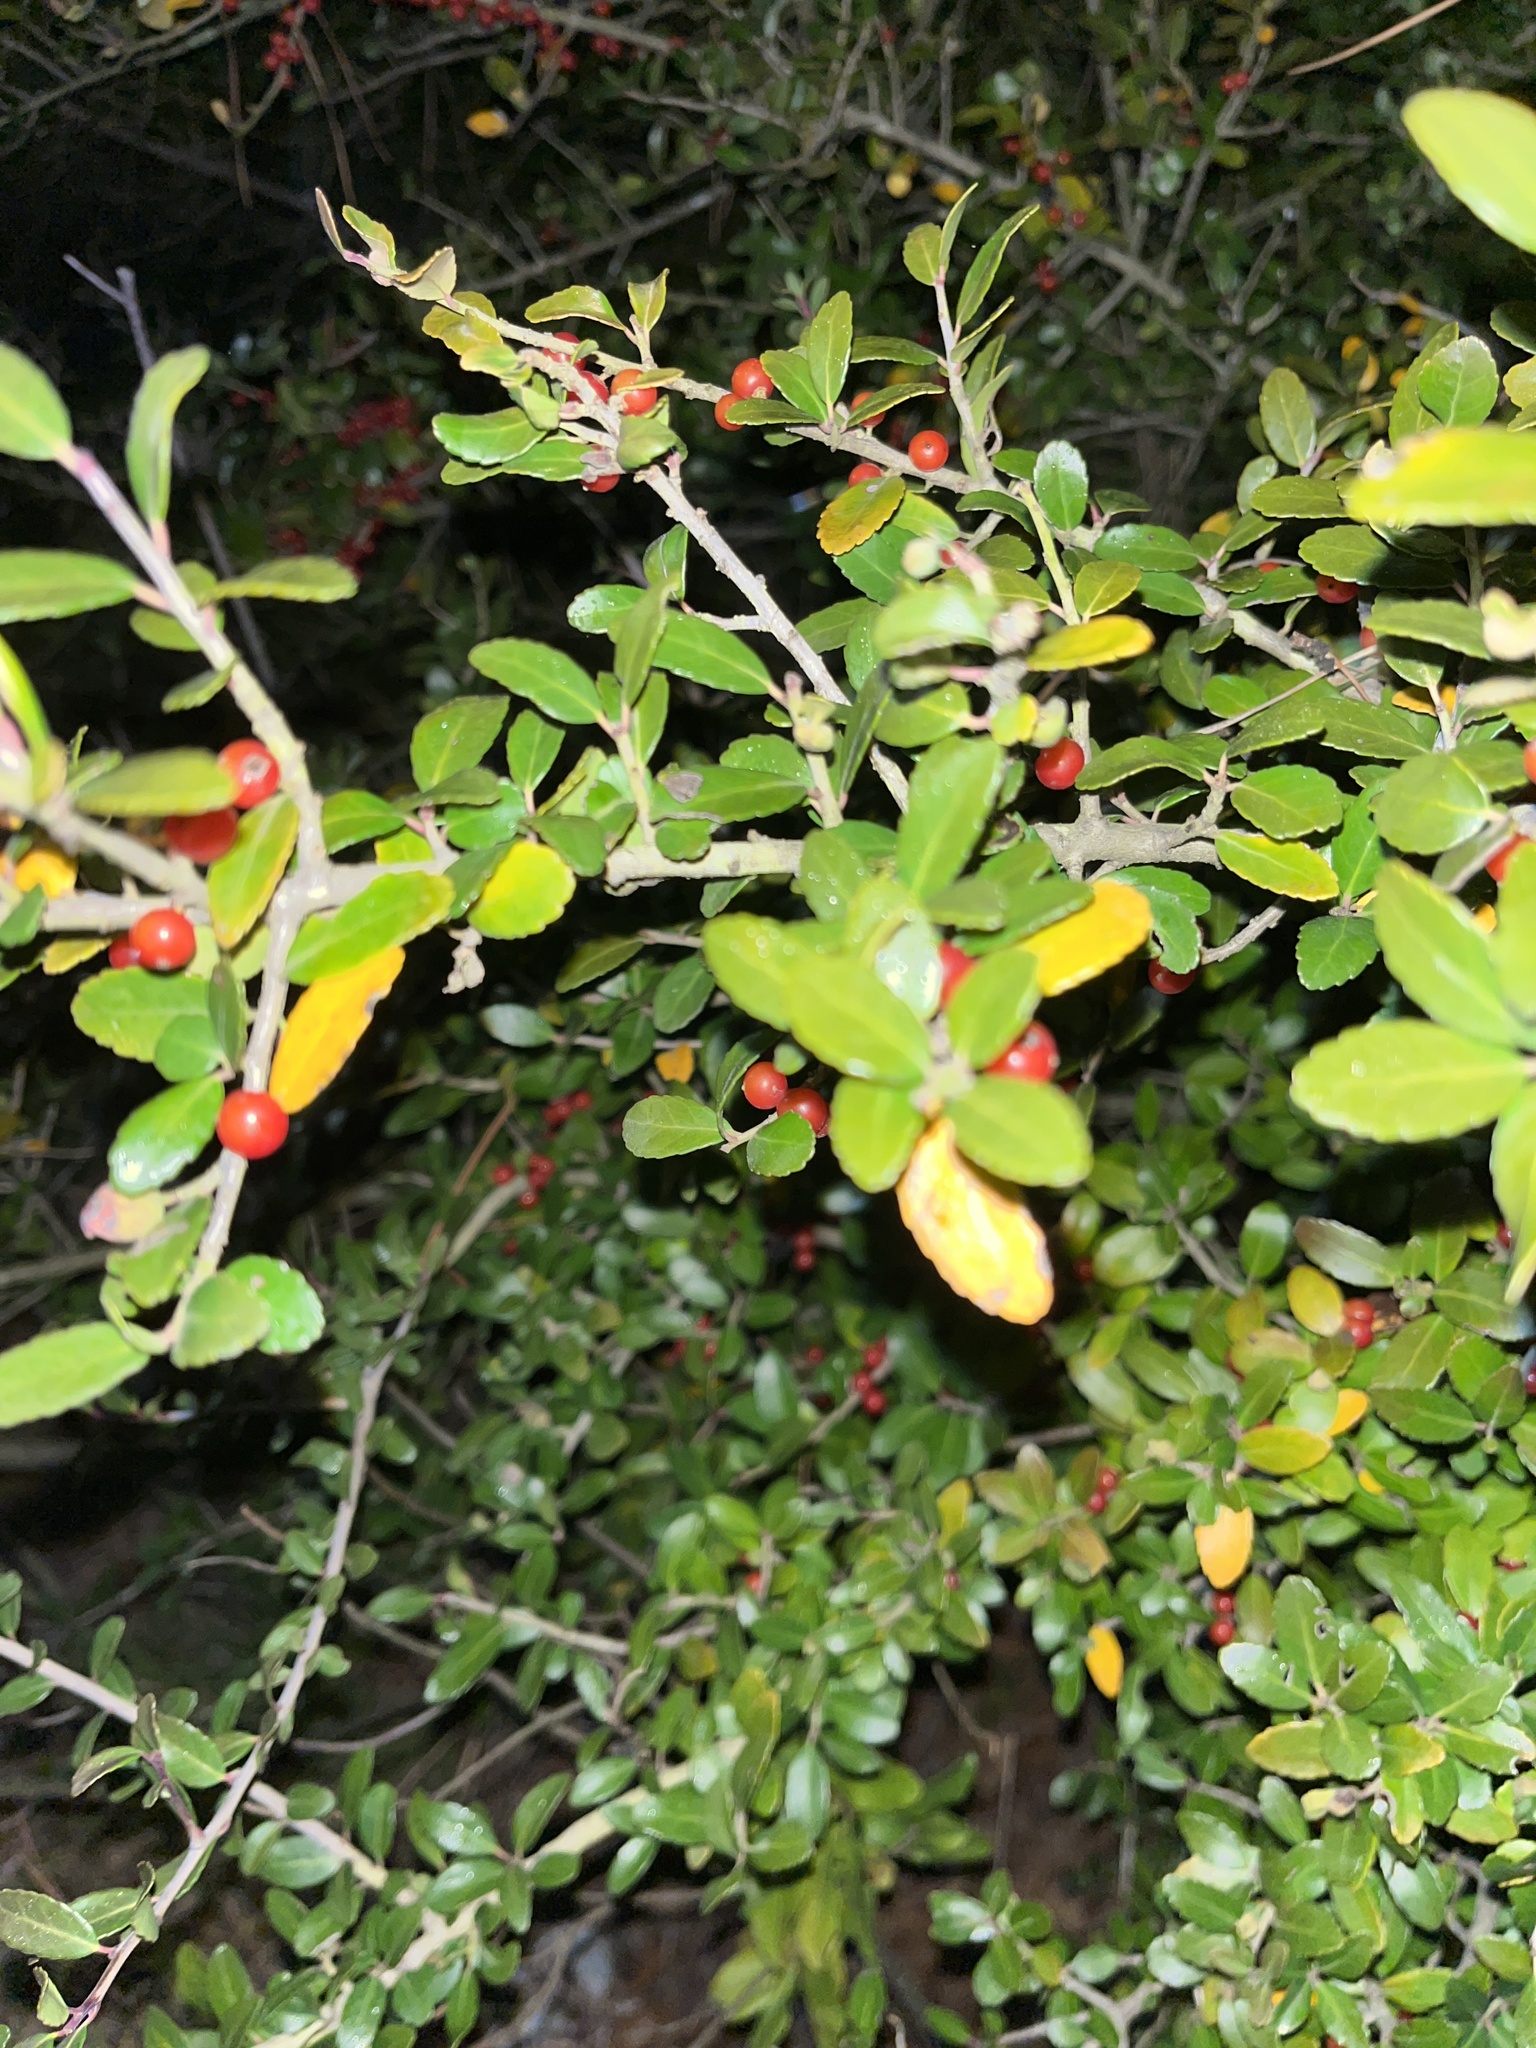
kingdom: Plantae
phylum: Tracheophyta
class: Magnoliopsida
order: Aquifoliales
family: Aquifoliaceae
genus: Ilex
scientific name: Ilex vomitoria
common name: Yaupon holly
